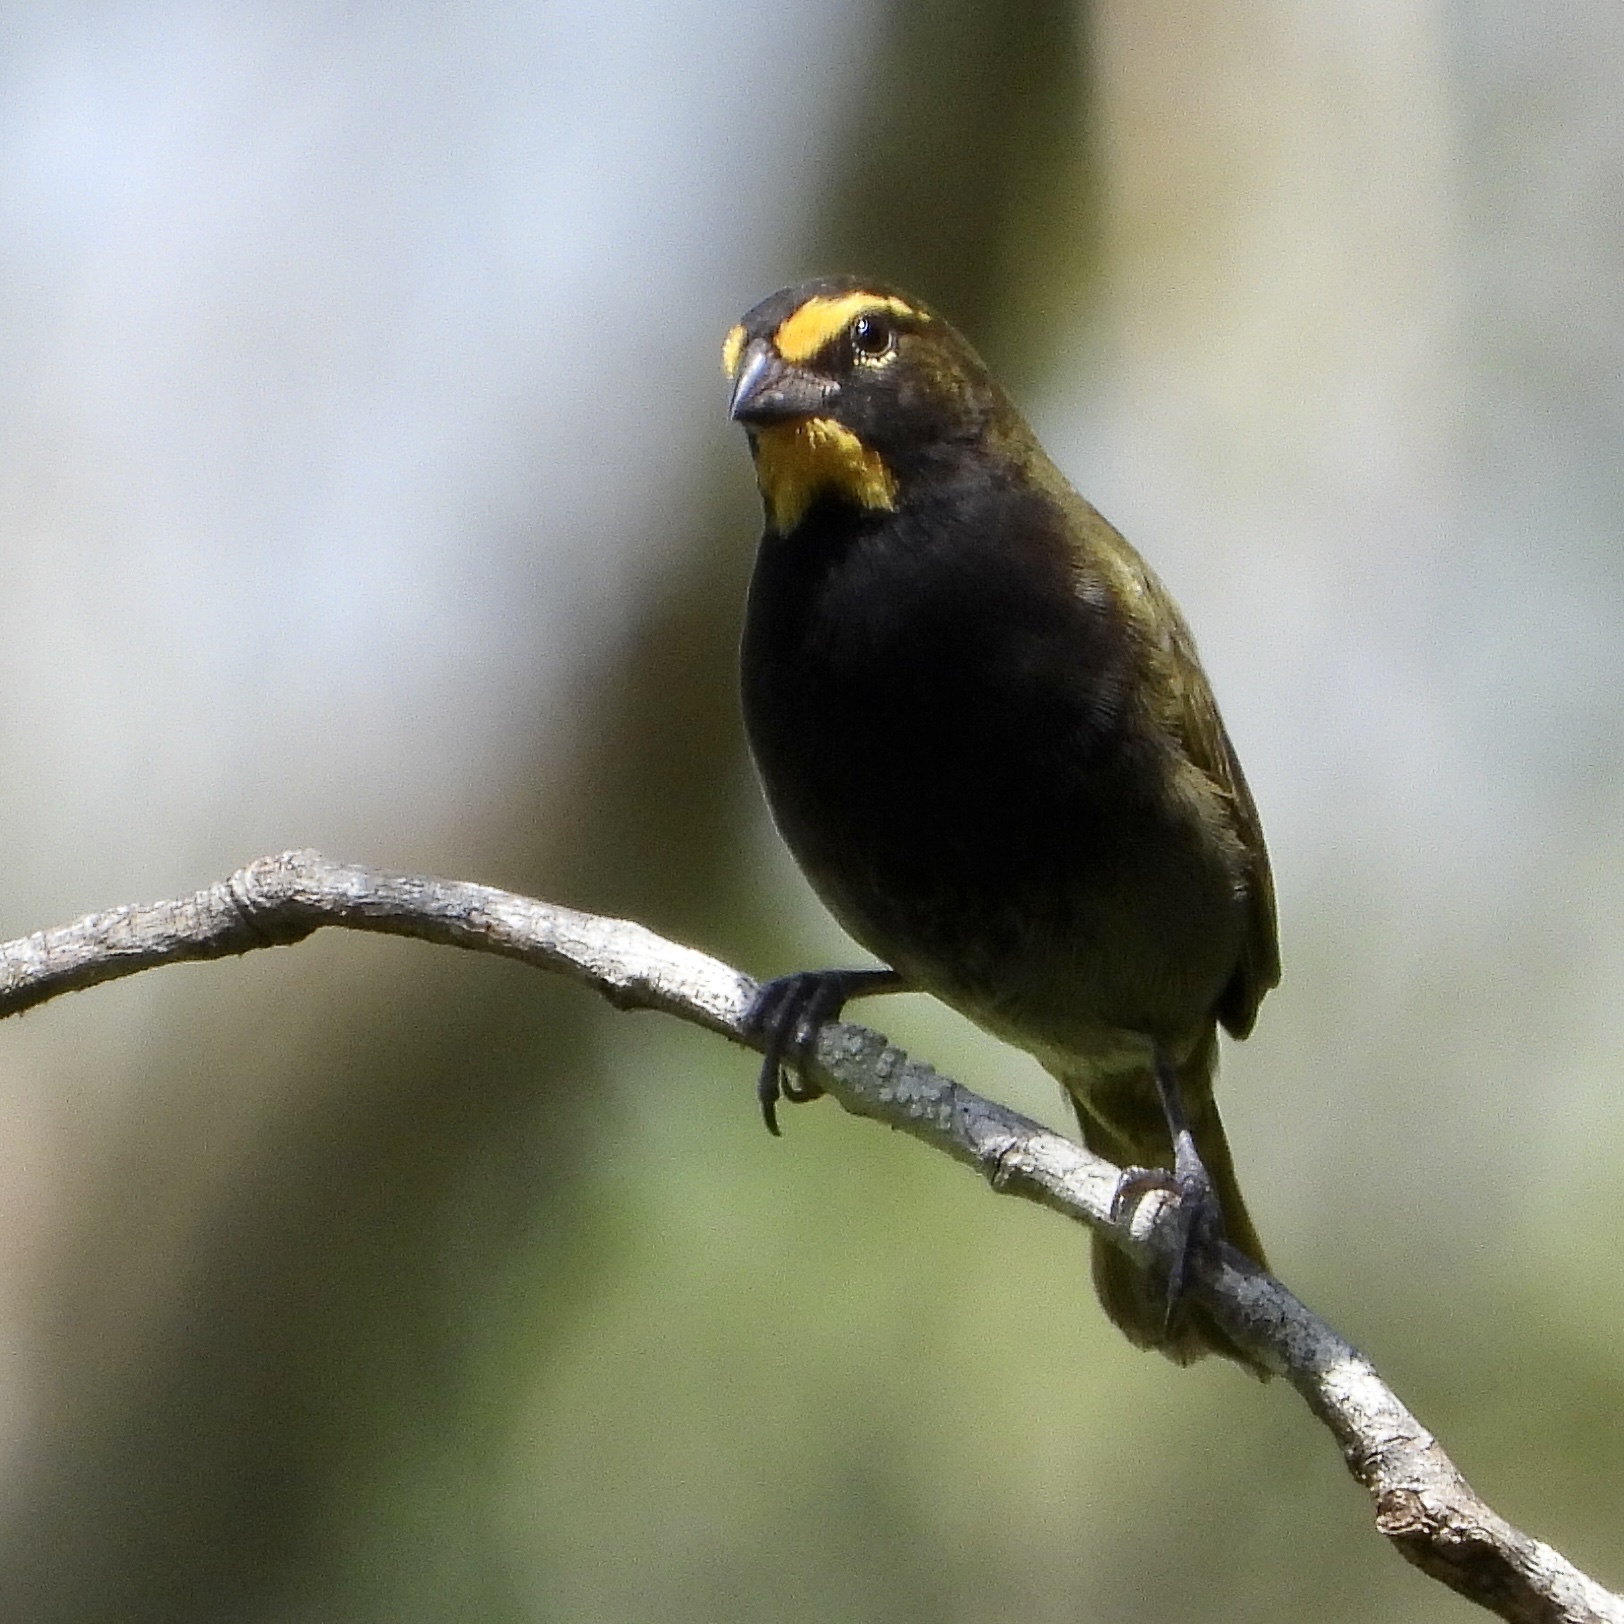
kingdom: Animalia
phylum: Chordata
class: Aves
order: Passeriformes
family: Thraupidae
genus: Tiaris
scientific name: Tiaris olivaceus
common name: Yellow-faced grassquit
